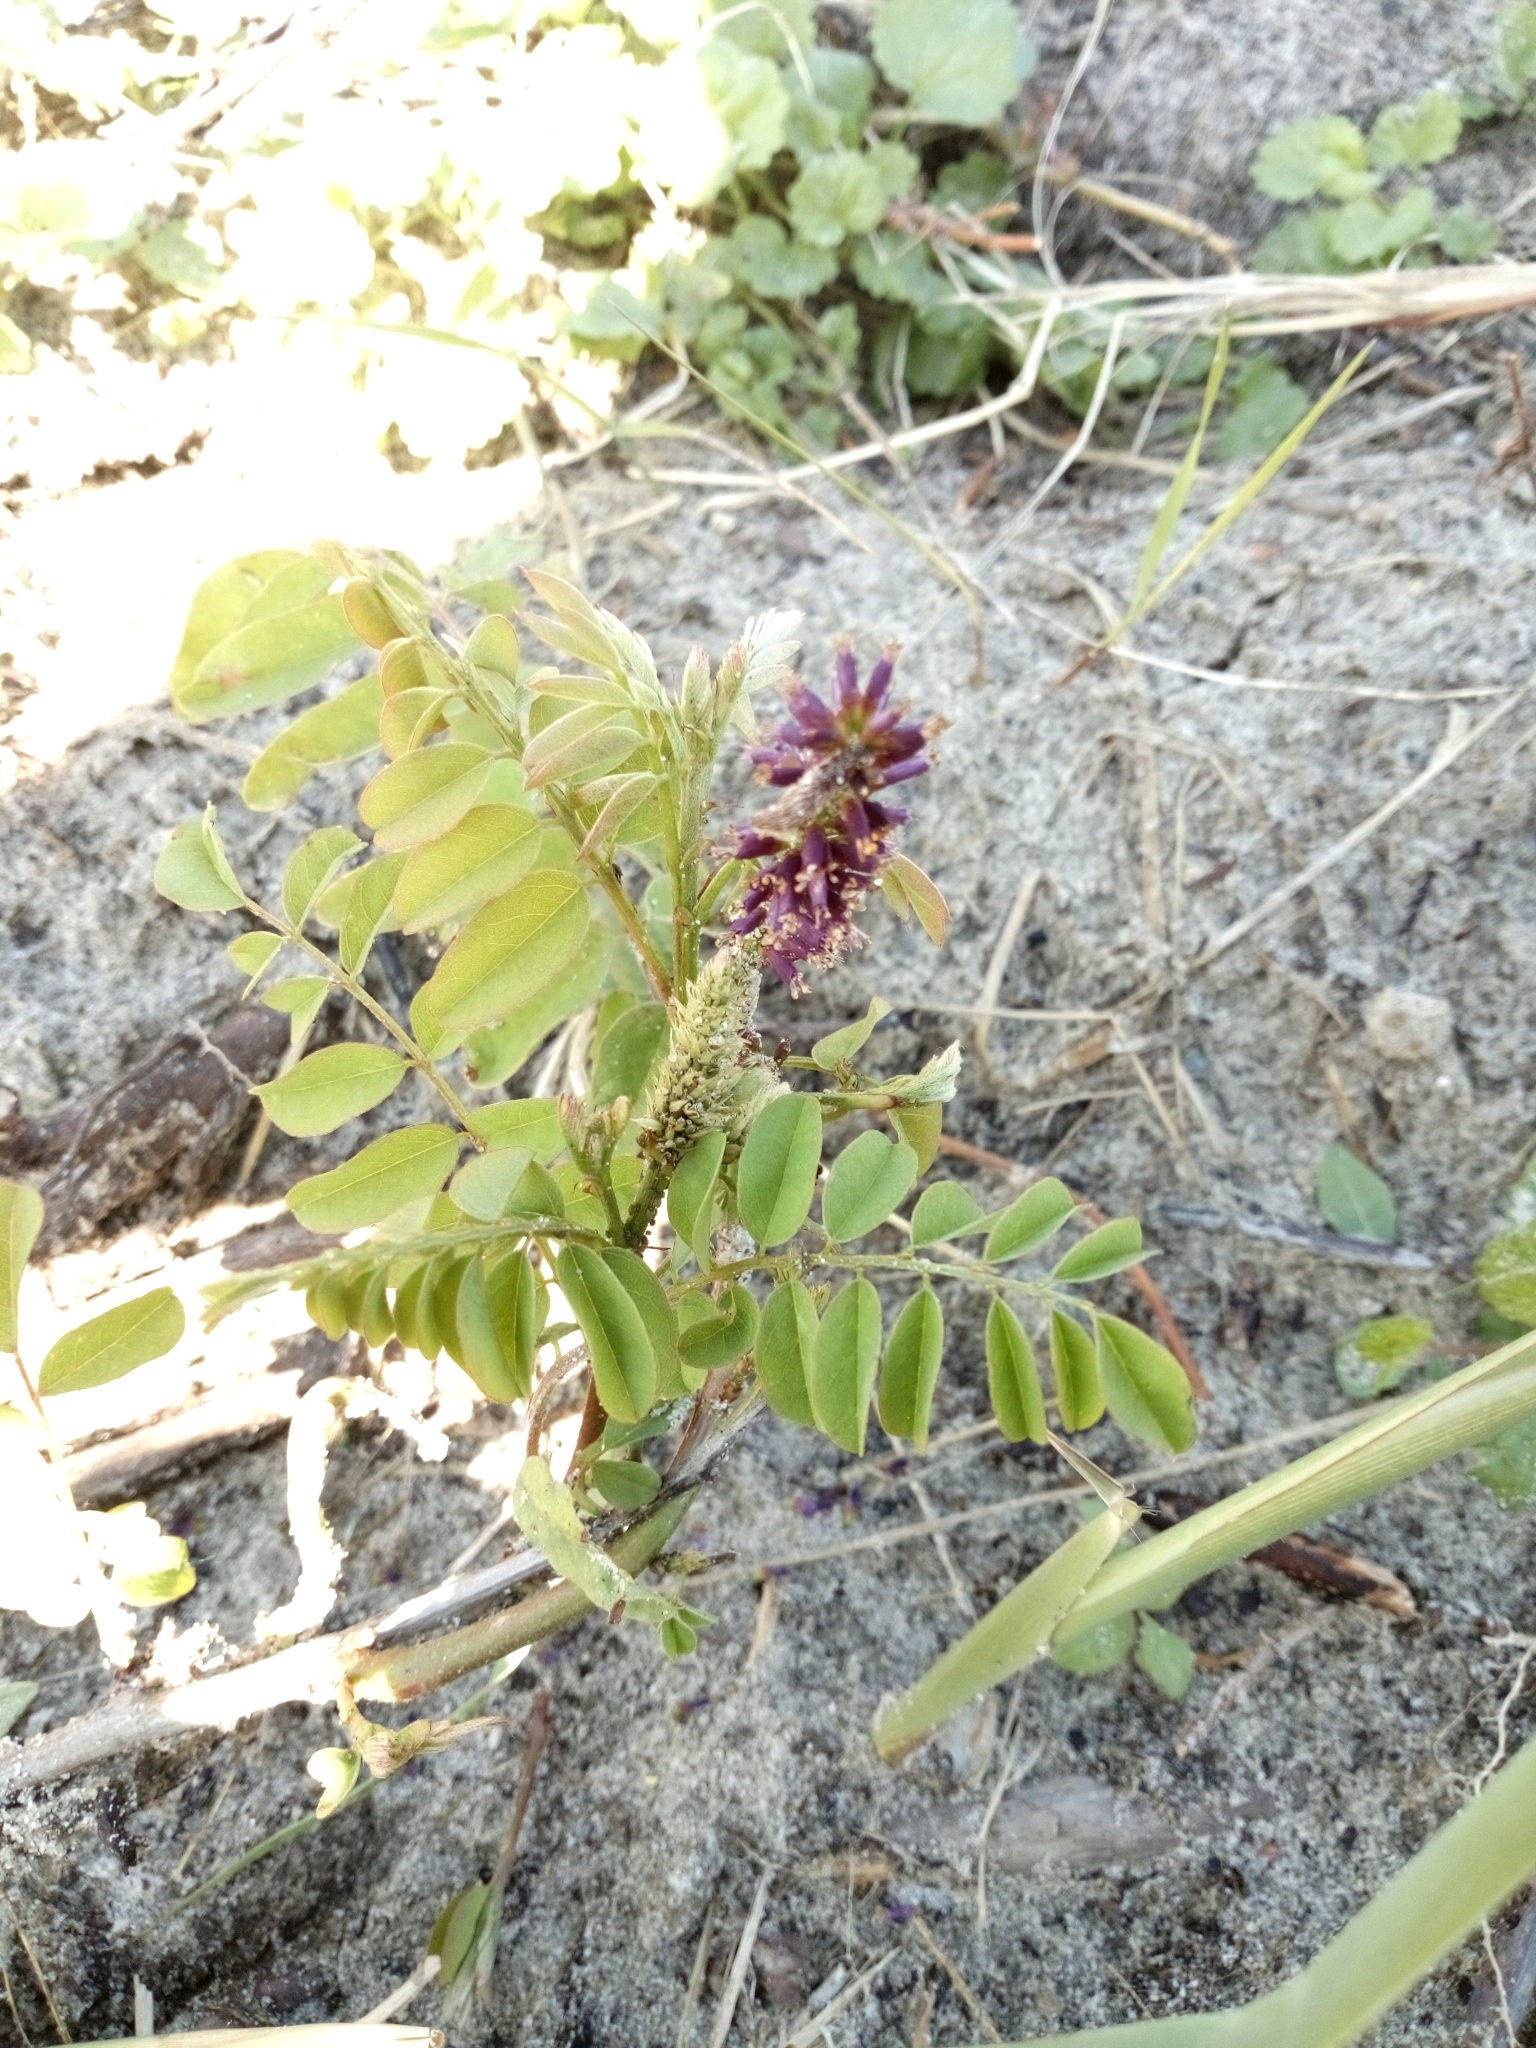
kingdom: Plantae
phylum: Tracheophyta
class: Magnoliopsida
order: Fabales
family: Fabaceae
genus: Amorpha
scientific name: Amorpha fruticosa
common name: False indigo
